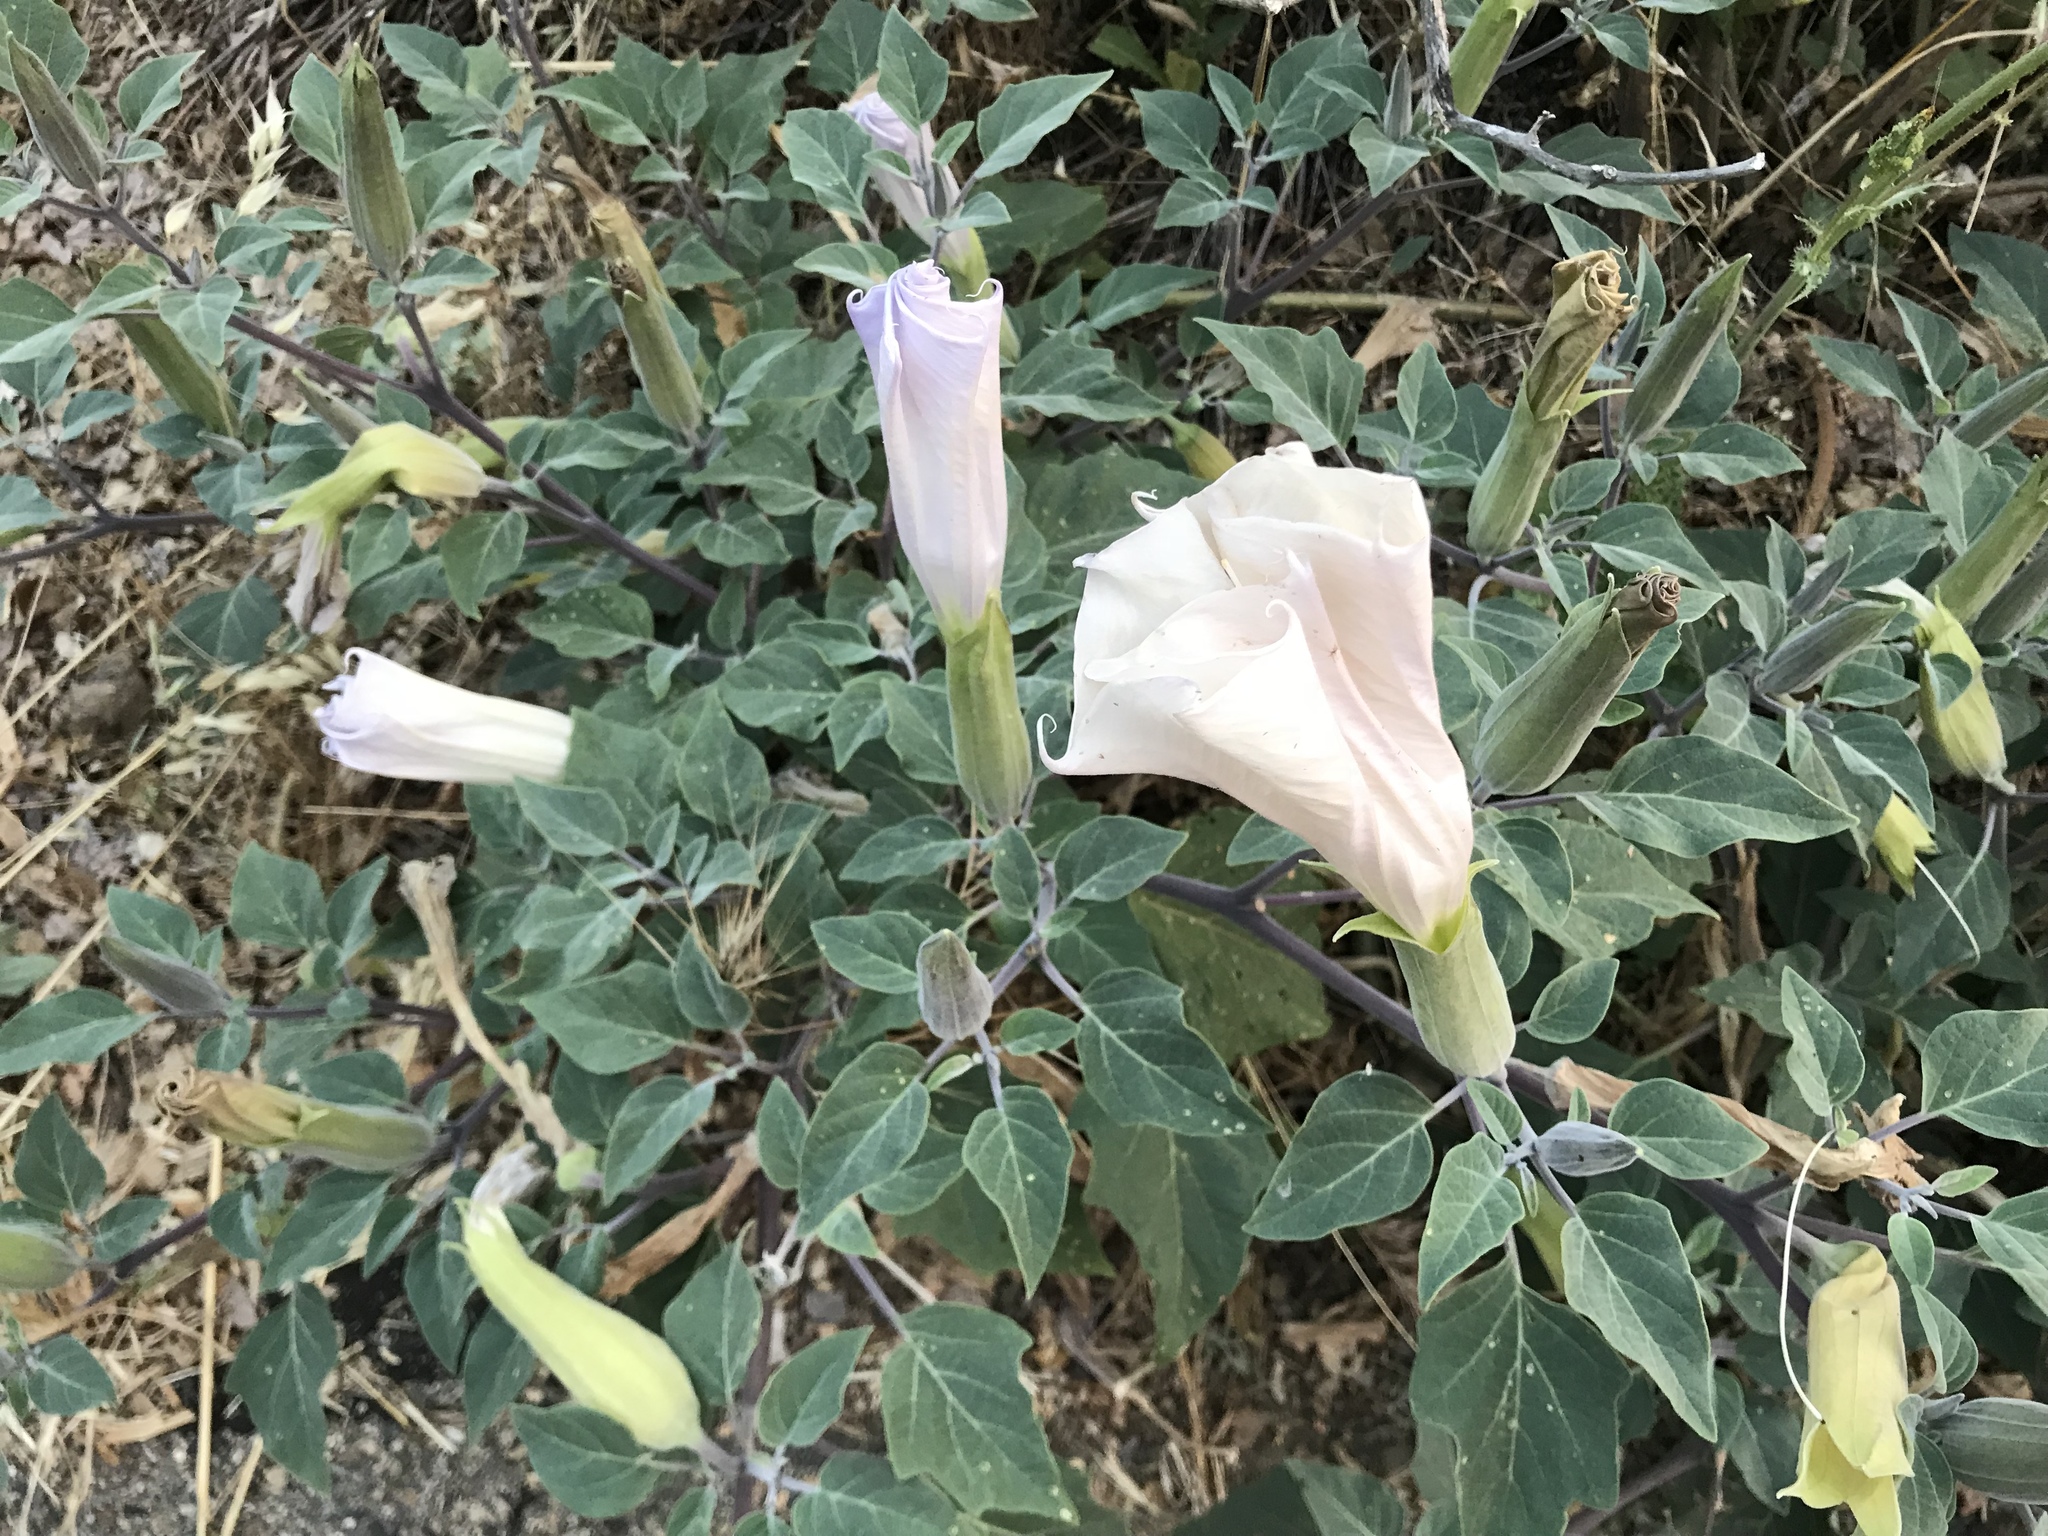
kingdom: Plantae
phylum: Tracheophyta
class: Magnoliopsida
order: Solanales
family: Solanaceae
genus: Datura
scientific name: Datura wrightii
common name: Sacred thorn-apple
